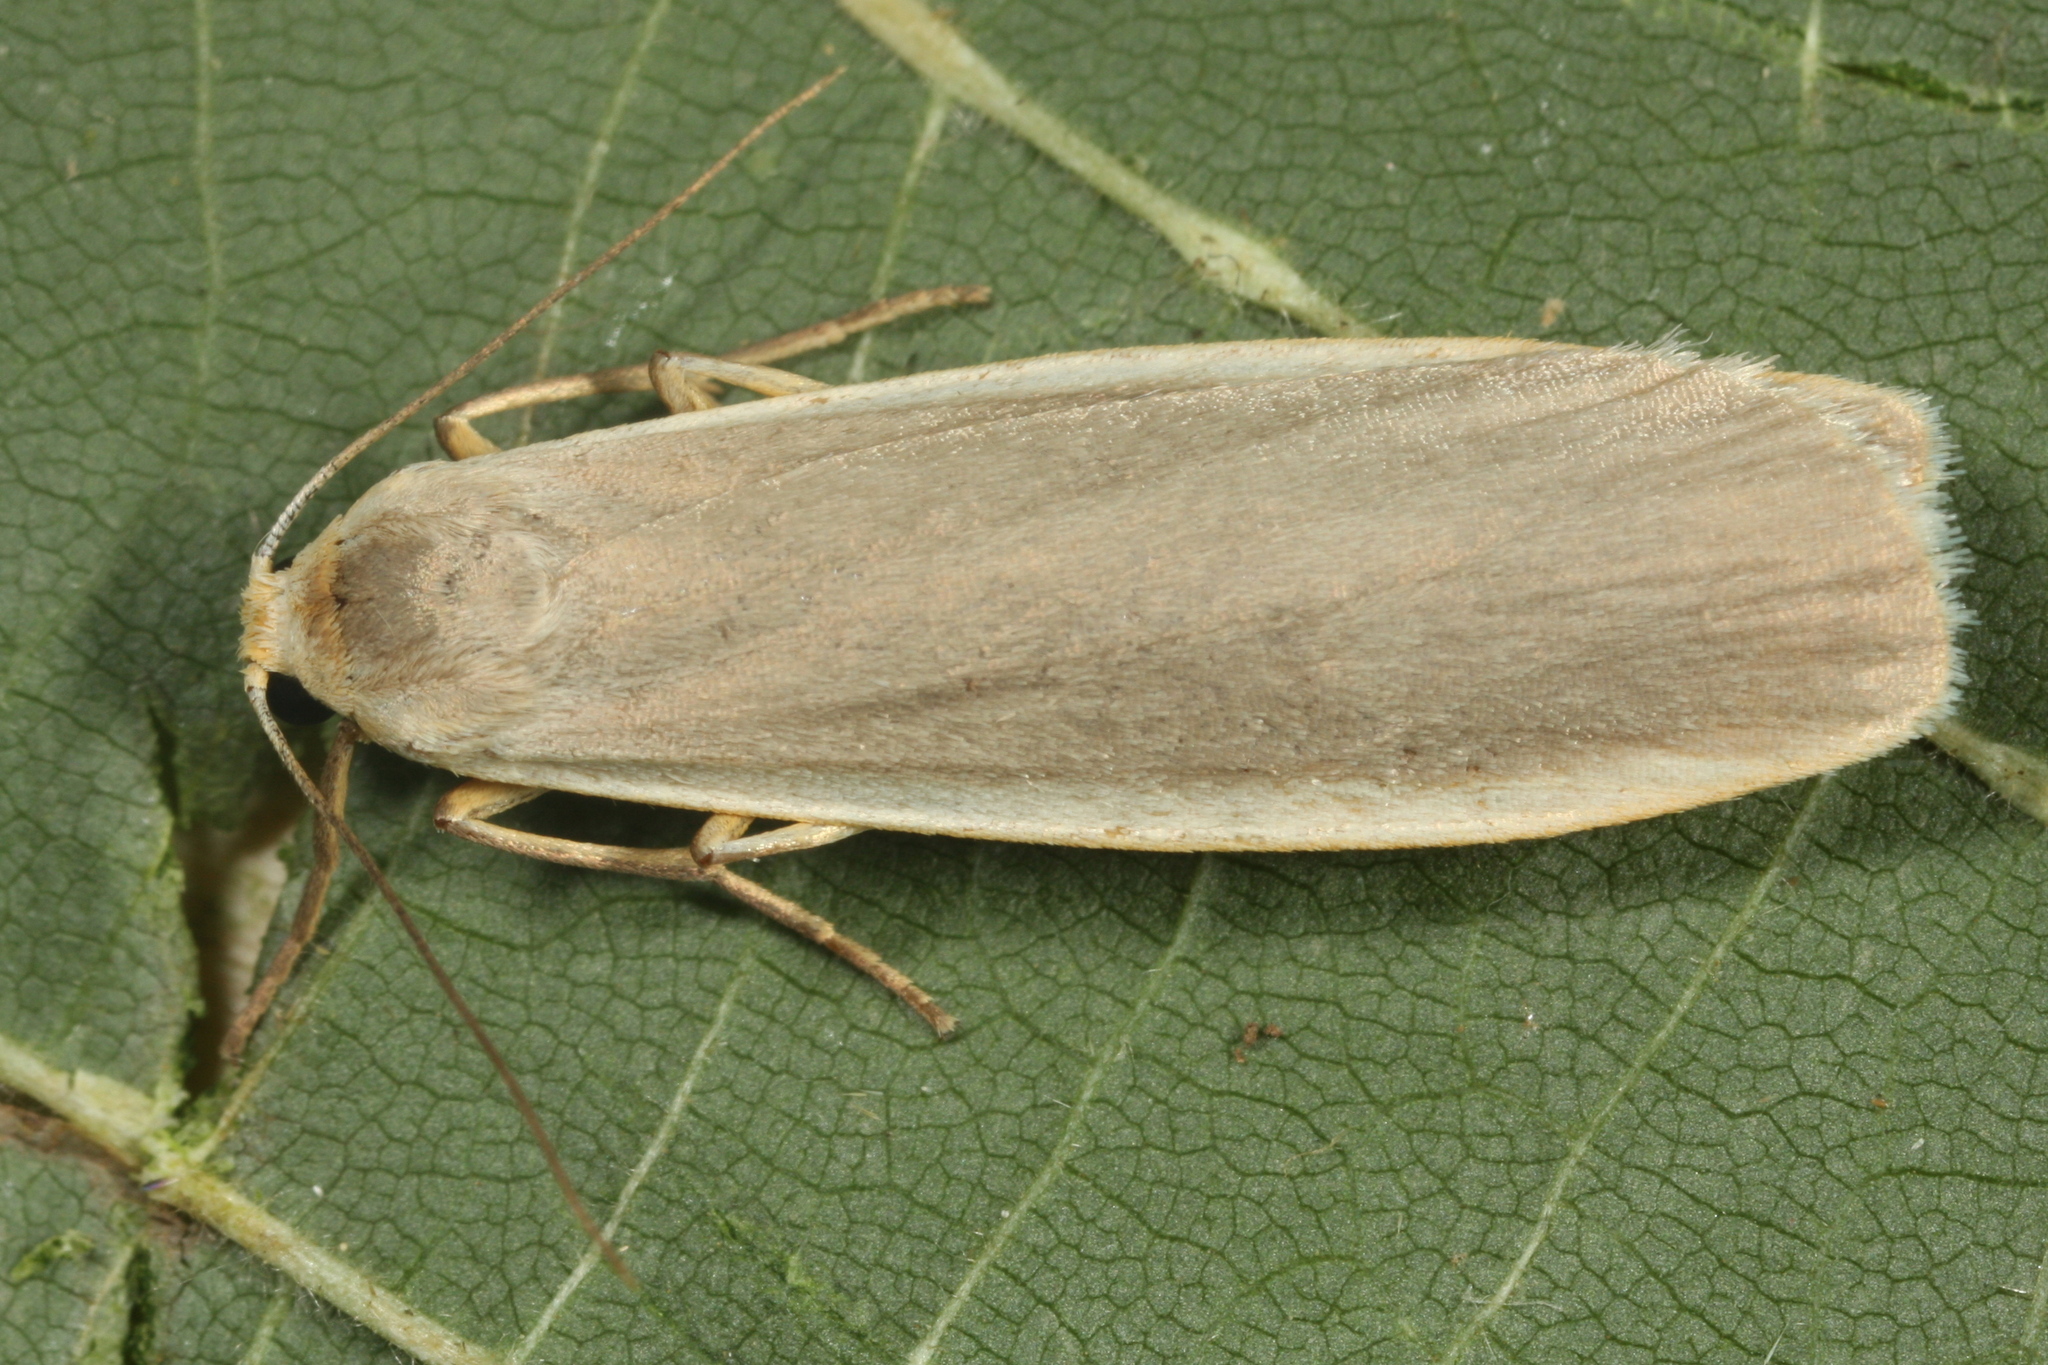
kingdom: Animalia
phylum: Arthropoda
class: Insecta
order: Lepidoptera
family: Erebidae
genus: Nyea
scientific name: Nyea lurideola
